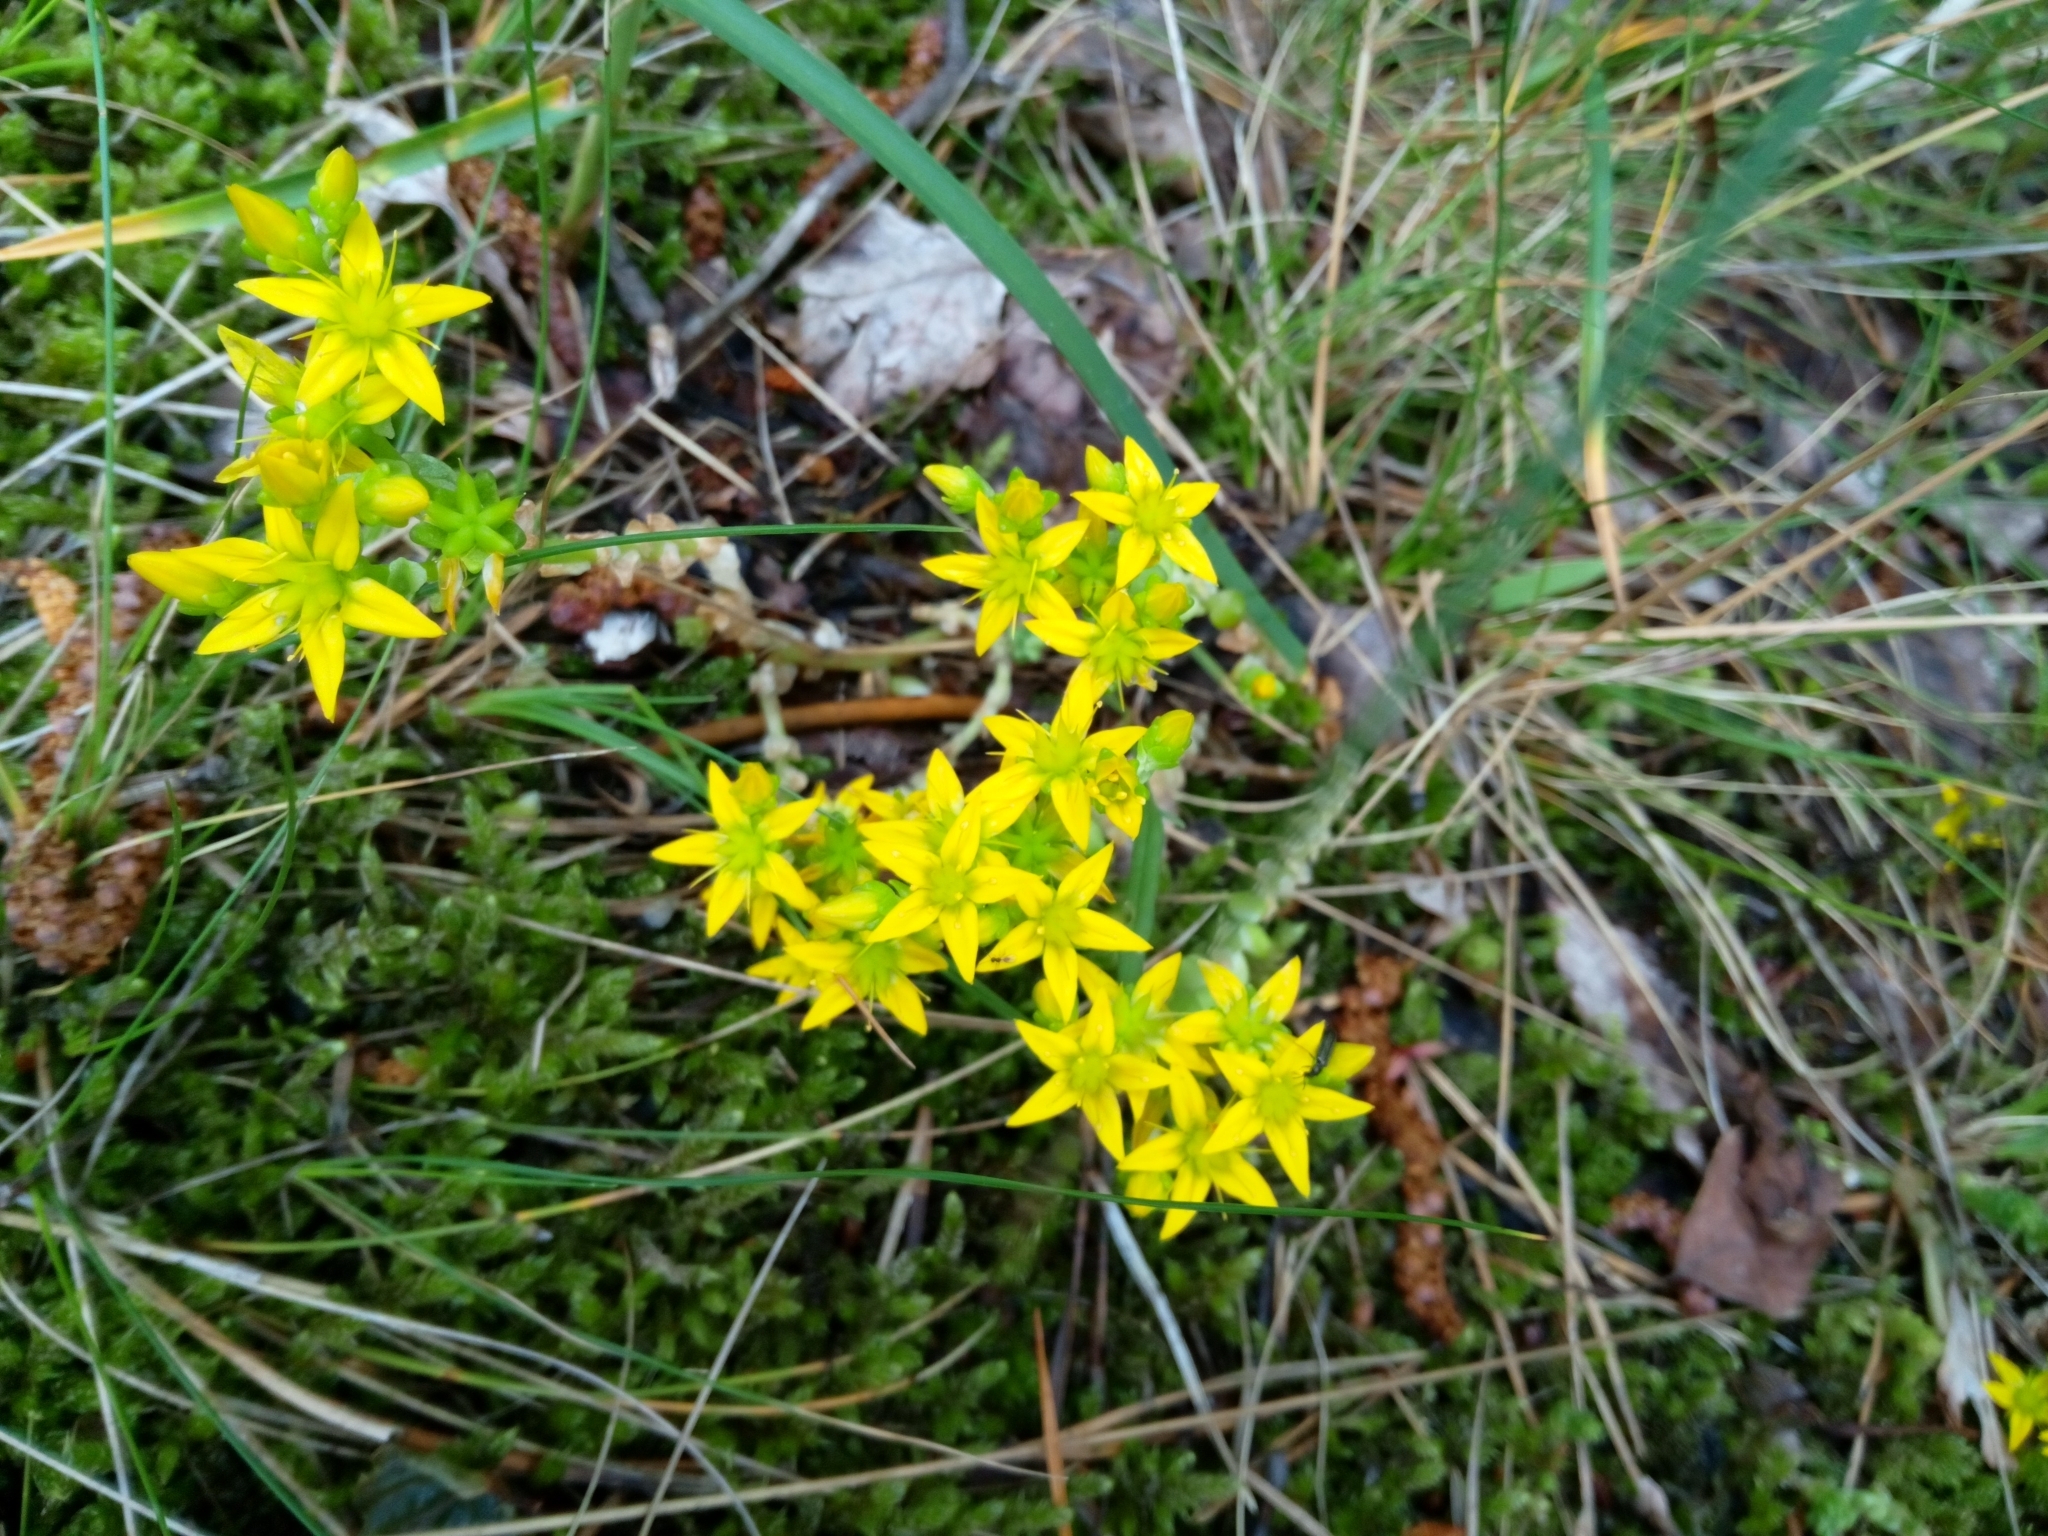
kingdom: Plantae
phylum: Tracheophyta
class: Magnoliopsida
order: Saxifragales
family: Crassulaceae
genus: Sedum
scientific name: Sedum acre
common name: Biting stonecrop
